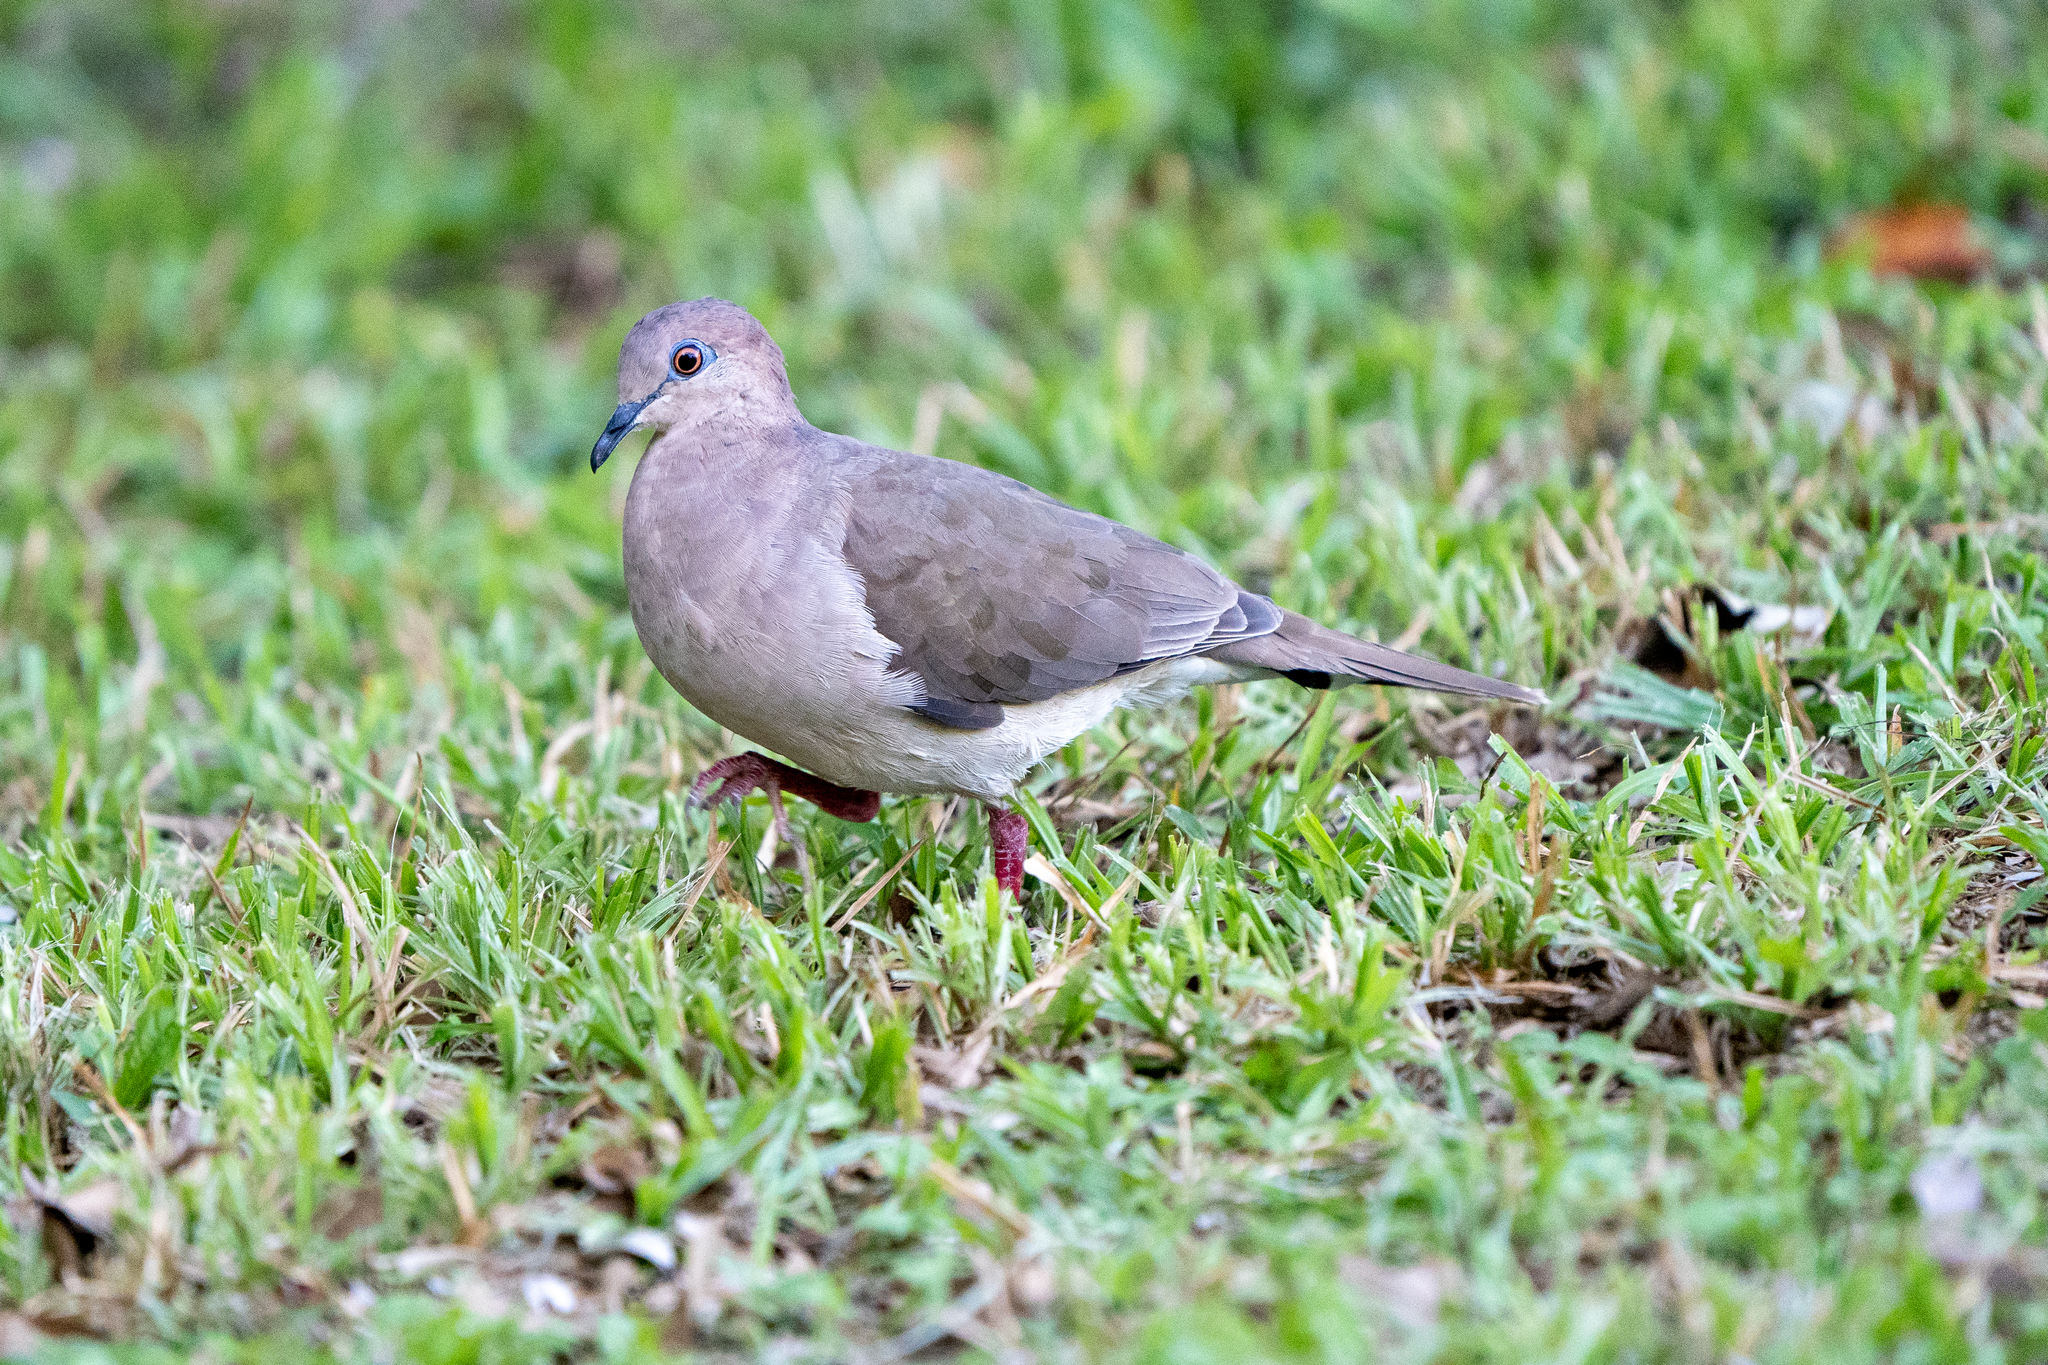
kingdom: Animalia
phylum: Chordata
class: Aves
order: Columbiformes
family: Columbidae
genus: Leptotila
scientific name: Leptotila verreauxi
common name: White-tipped dove
